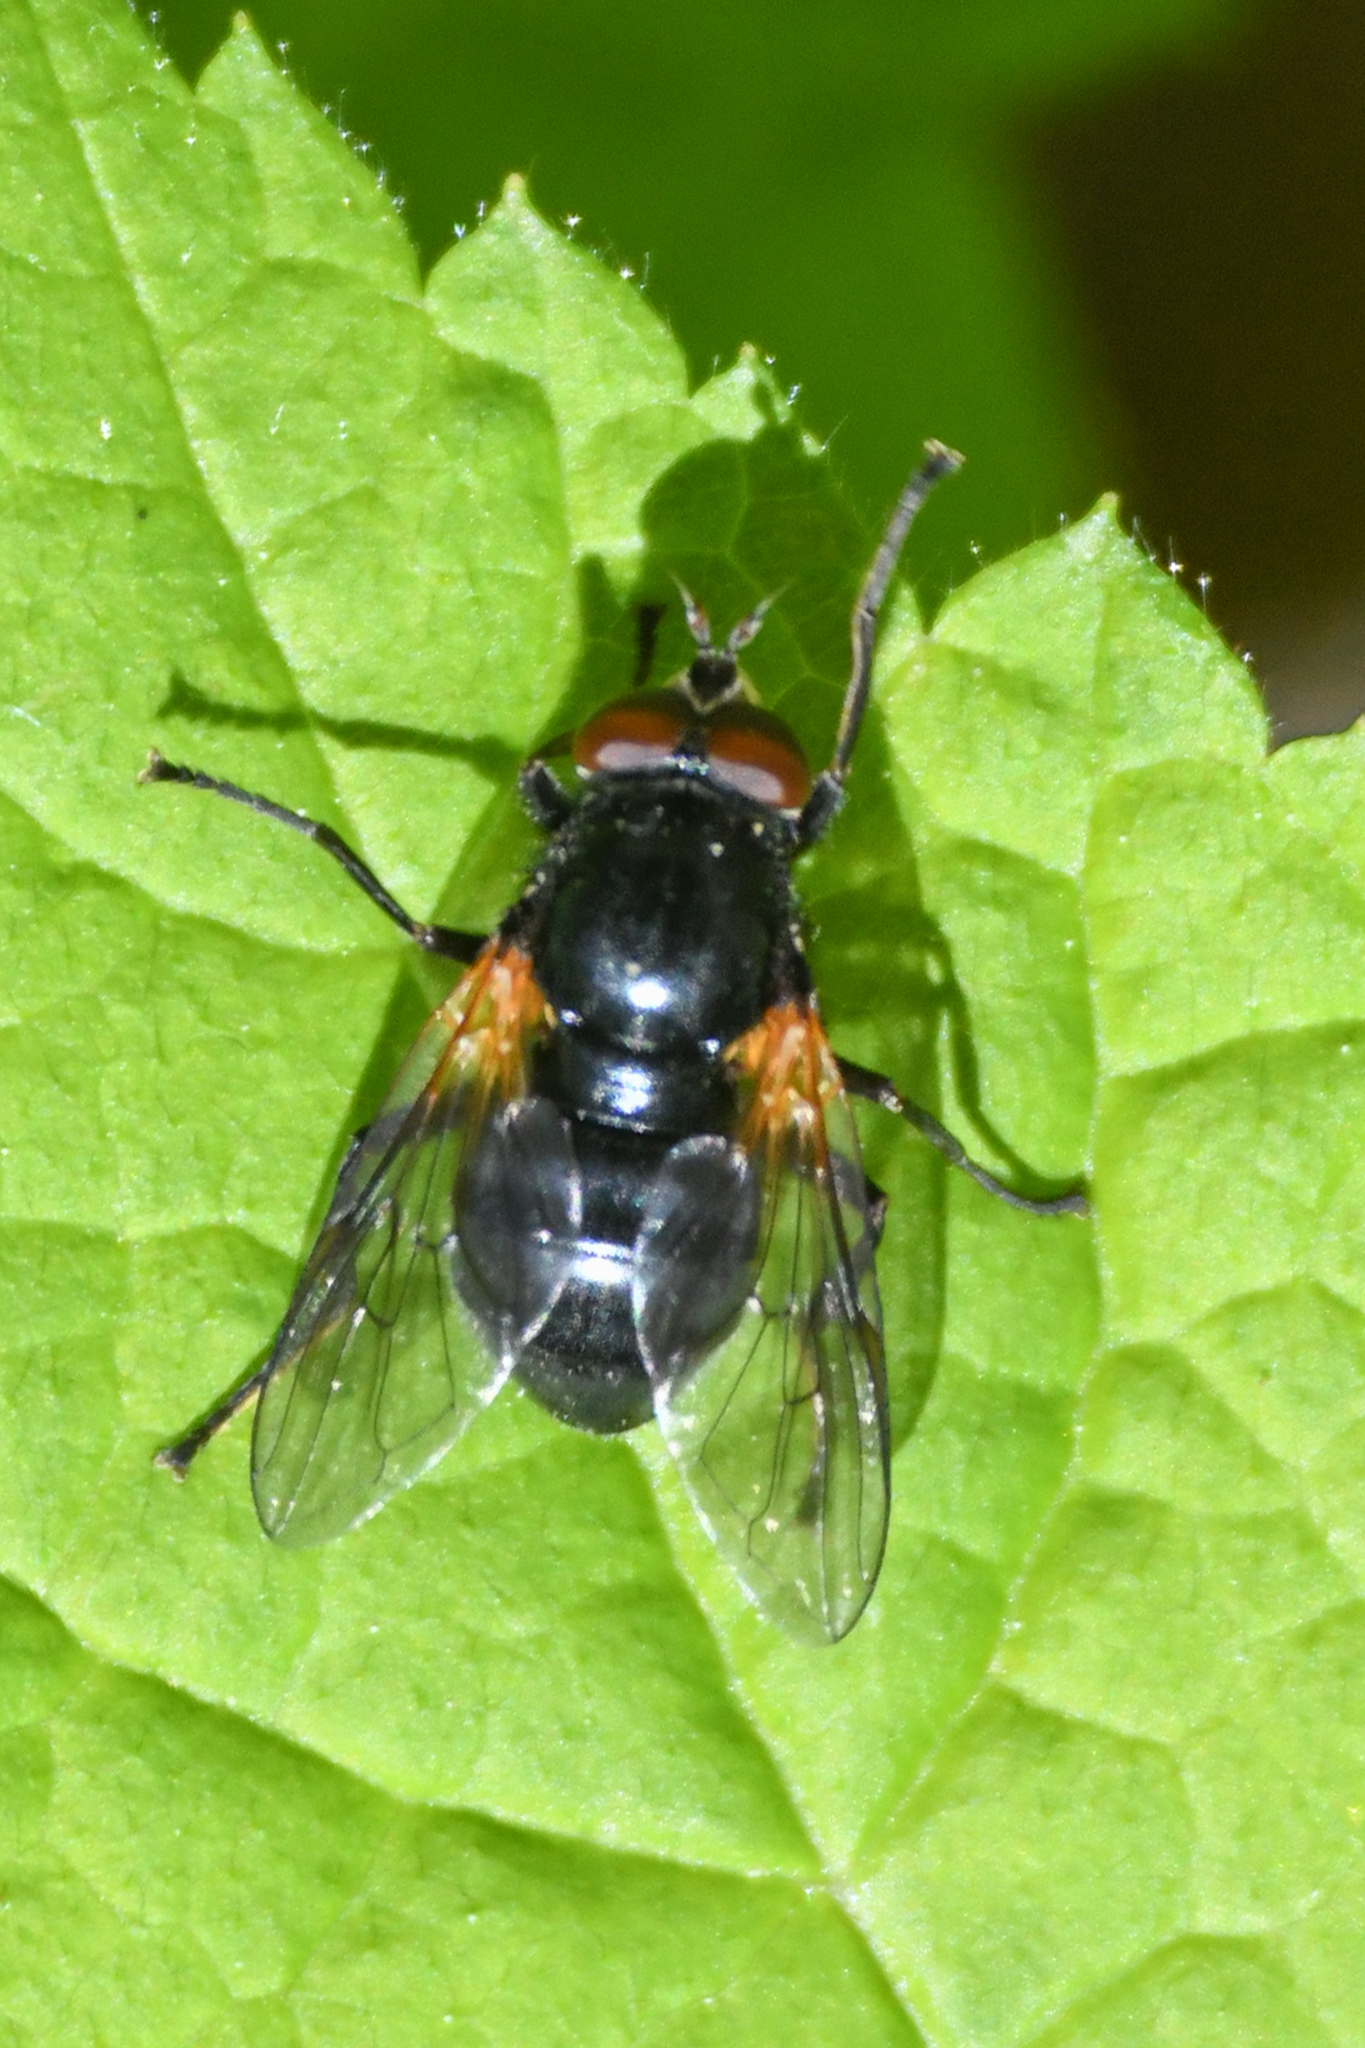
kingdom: Animalia
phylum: Arthropoda
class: Insecta
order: Diptera
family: Syrphidae
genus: Blera
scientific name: Blera nigra
